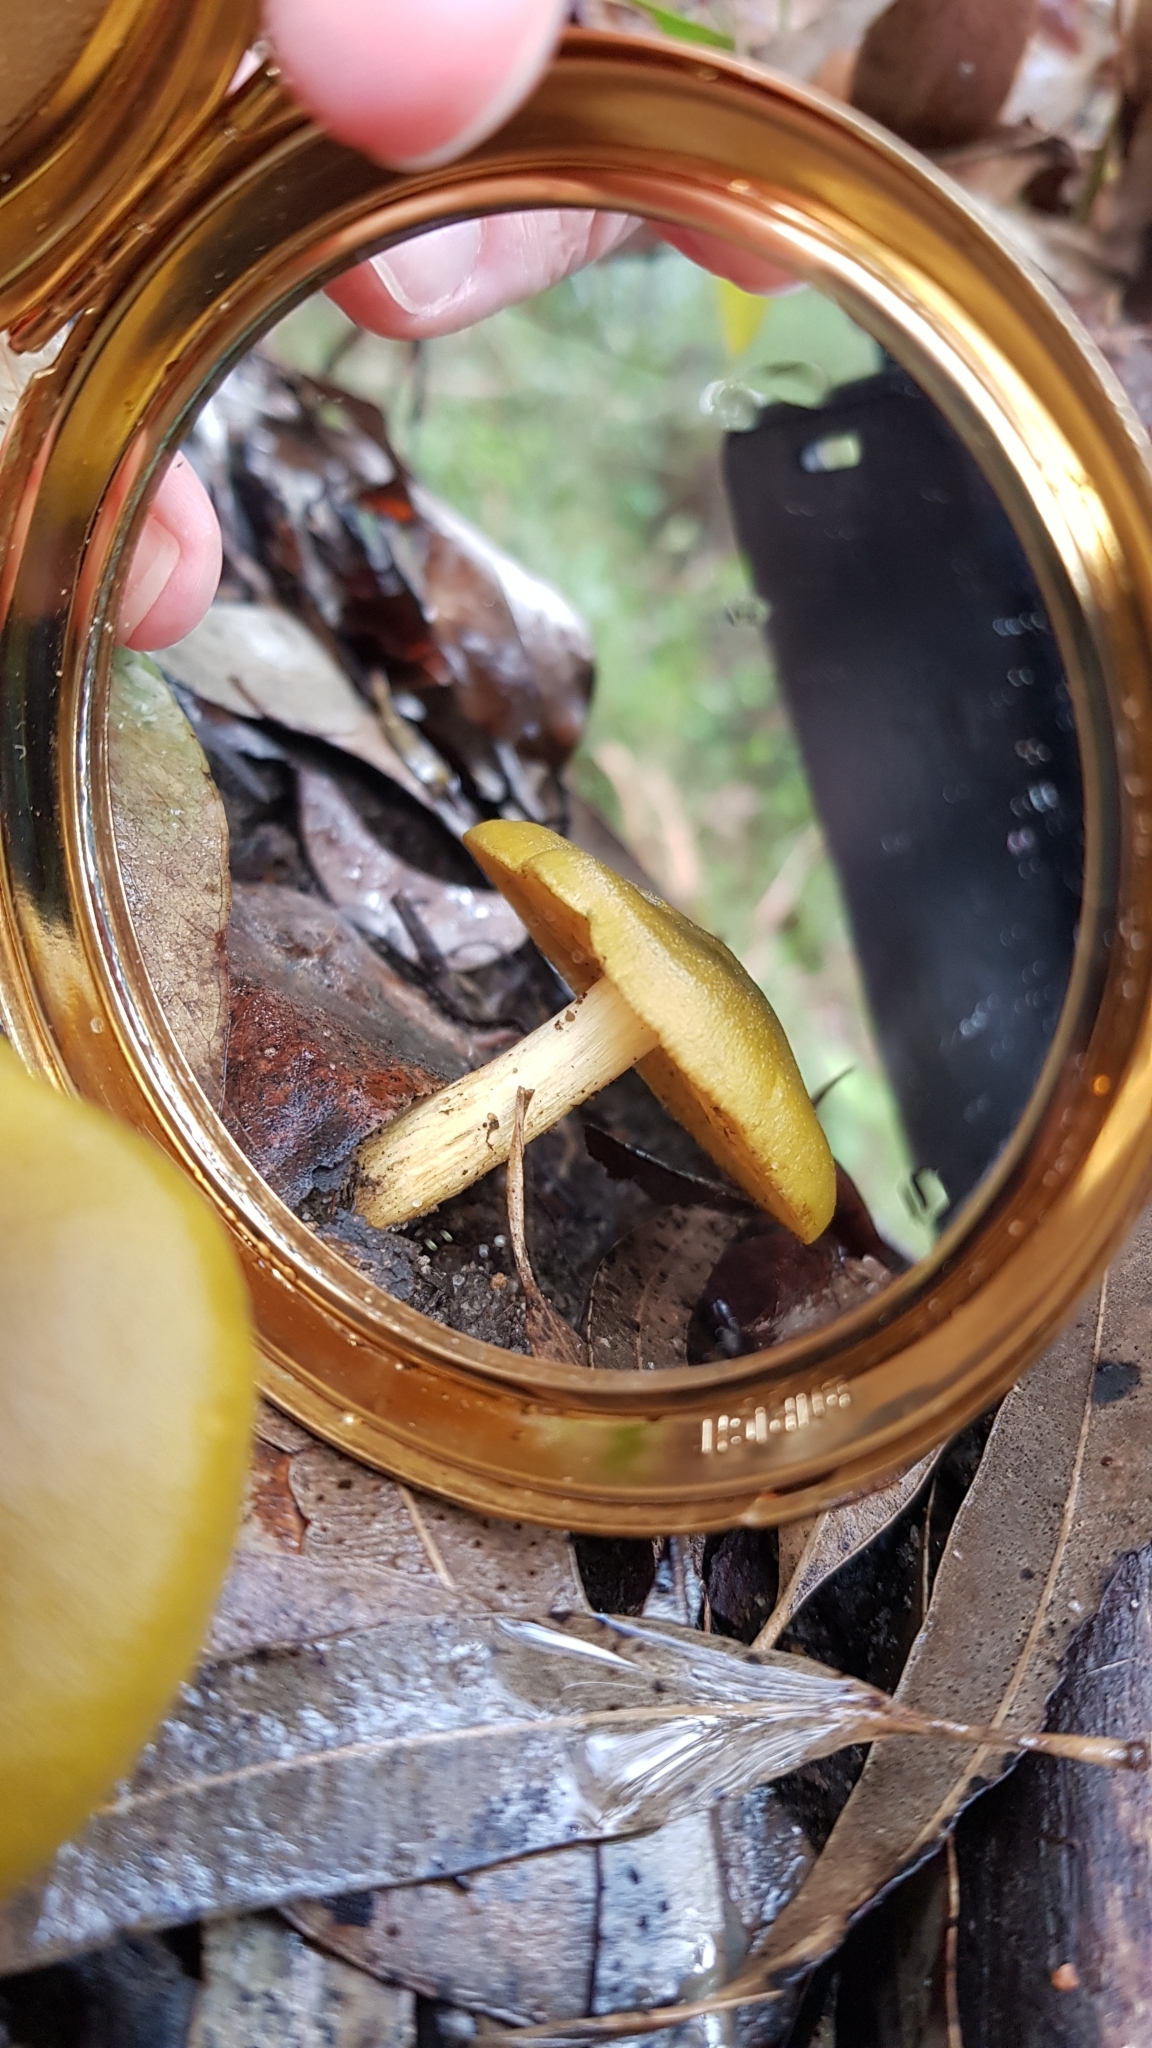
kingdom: Fungi
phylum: Basidiomycota
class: Agaricomycetes
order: Agaricales
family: Cortinariaceae
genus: Cortinarius
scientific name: Cortinarius austrovenetus
